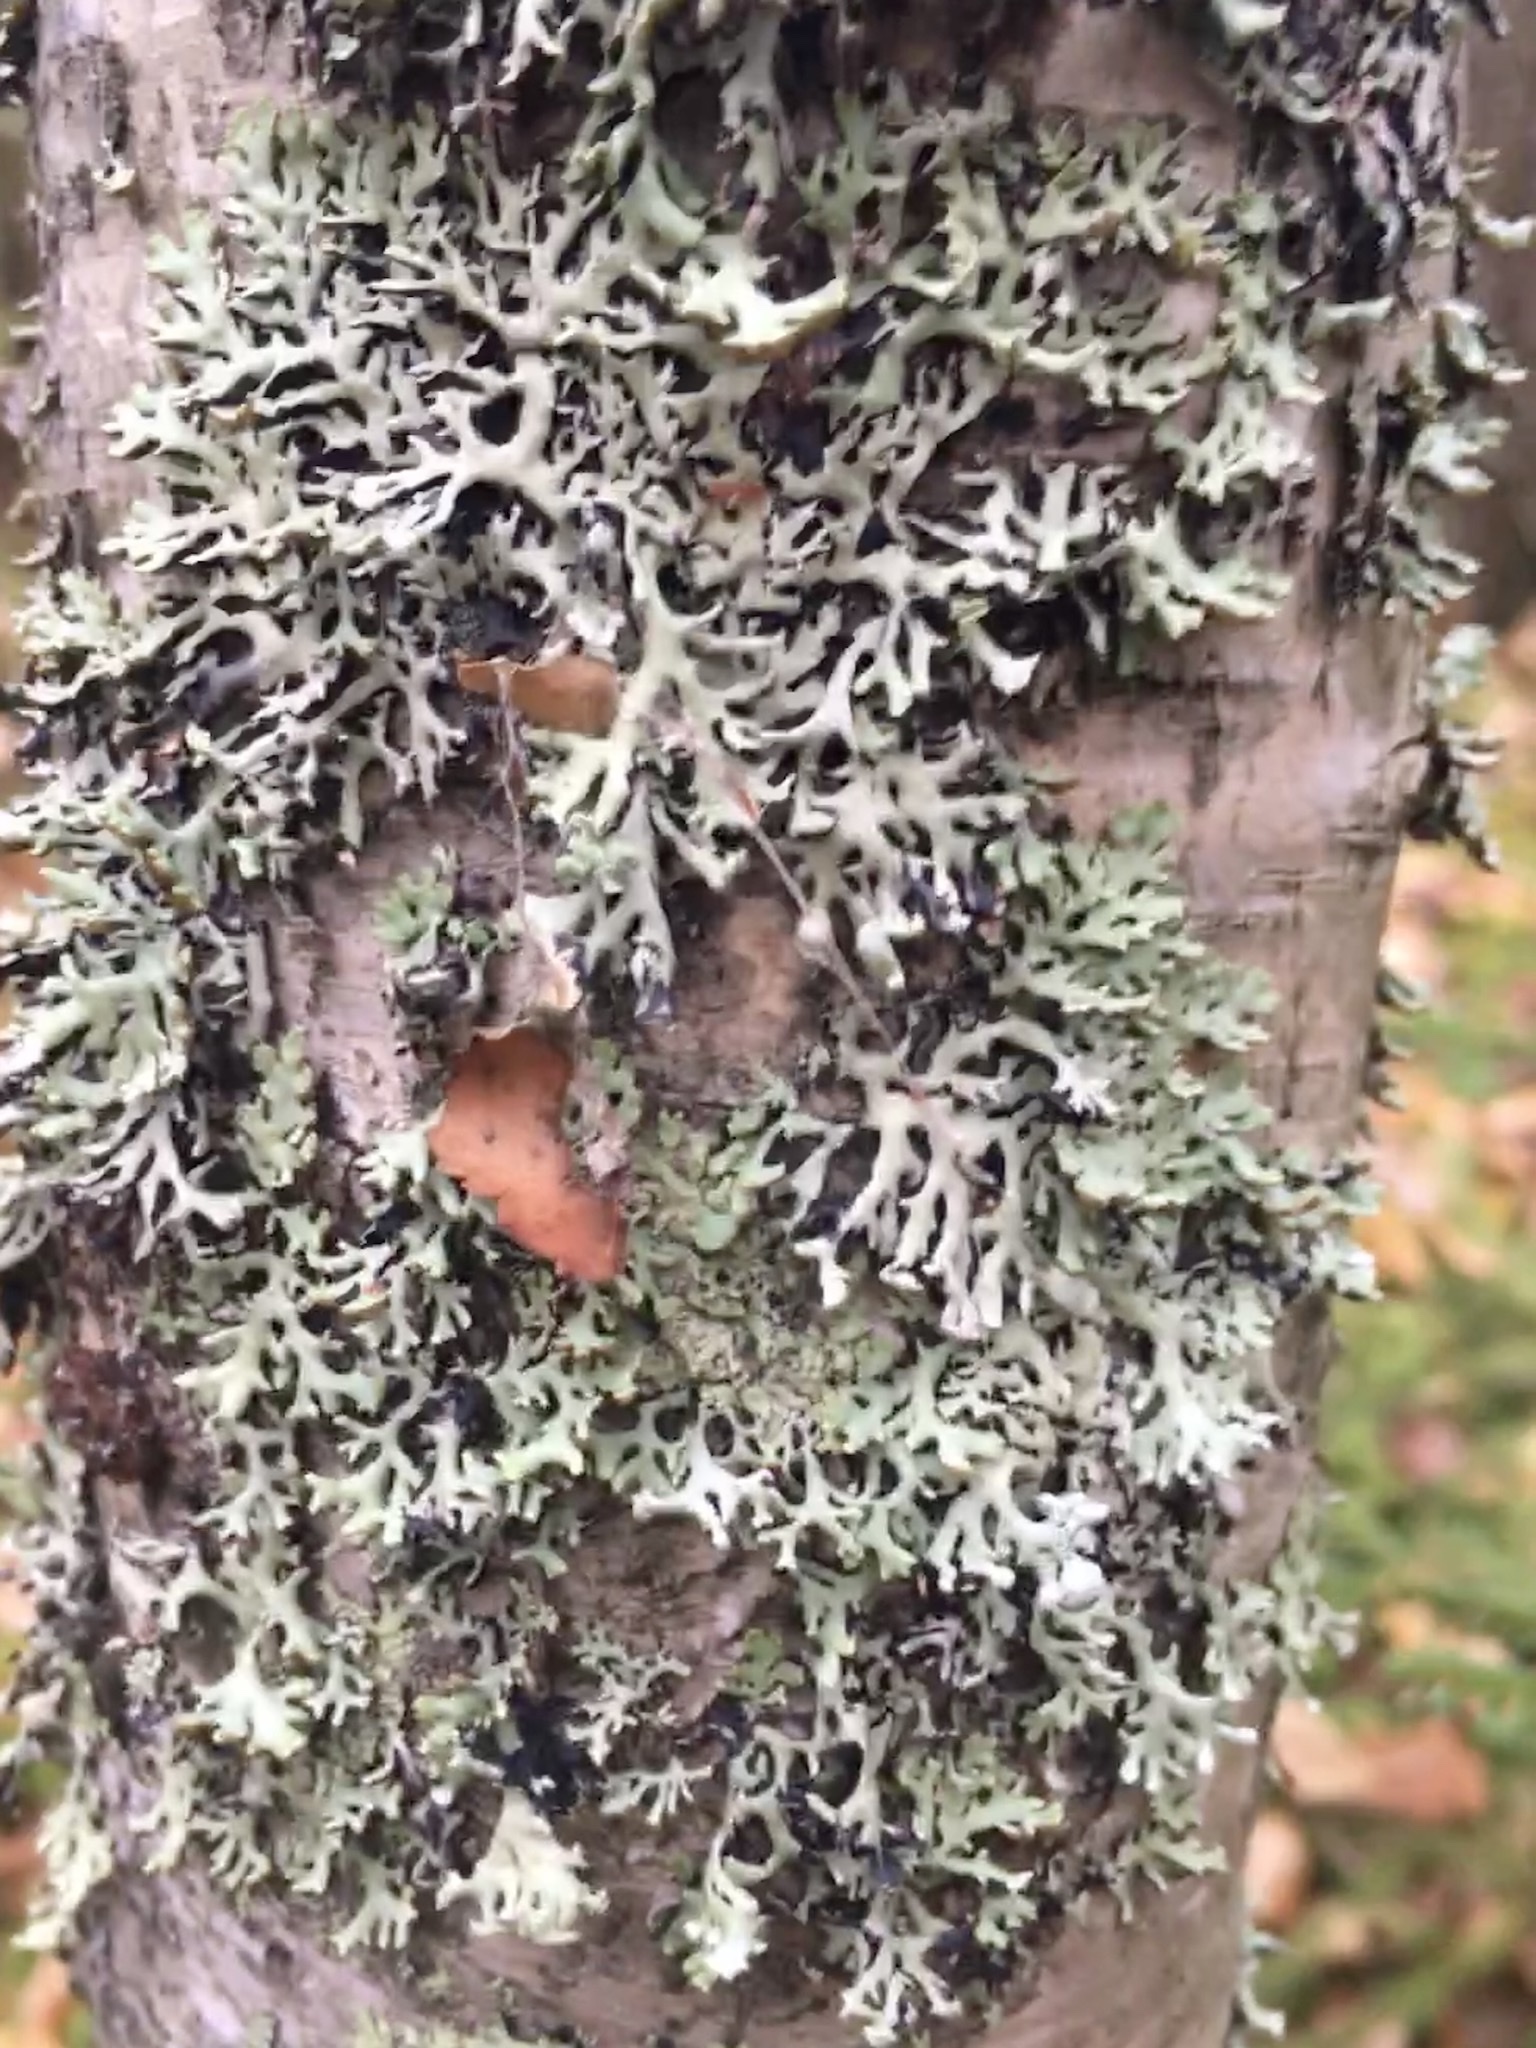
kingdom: Fungi
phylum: Ascomycota
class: Lecanoromycetes
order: Lecanorales
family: Parmeliaceae
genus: Hypogymnia
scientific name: Hypogymnia physodes
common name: Dark crottle
